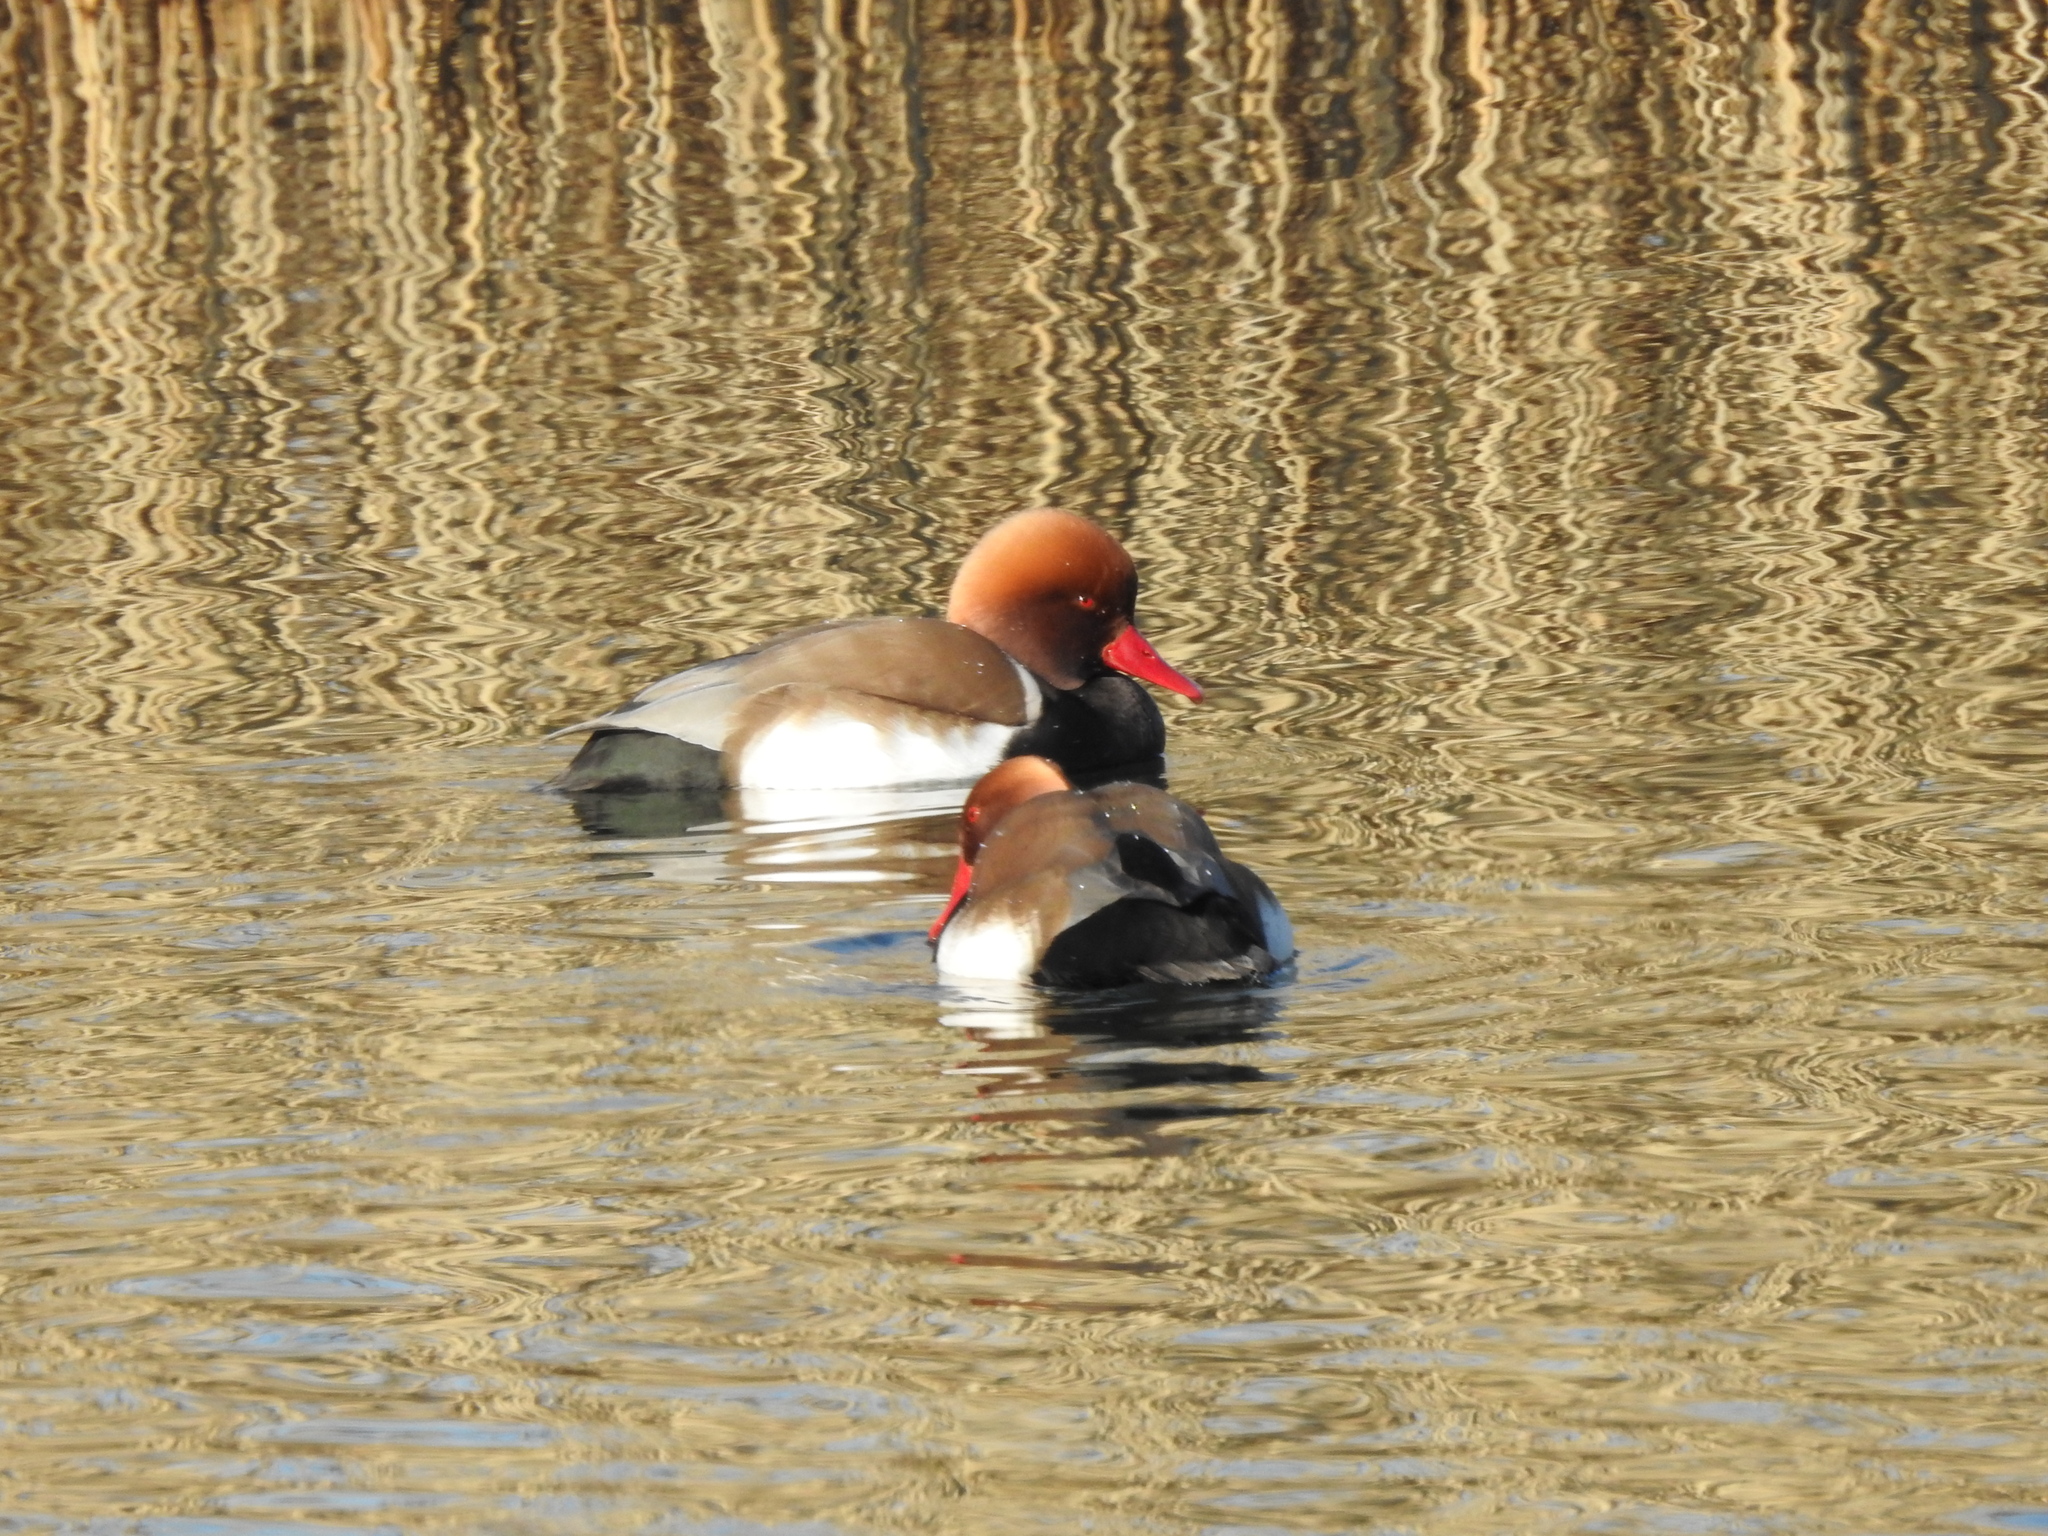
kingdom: Animalia
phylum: Chordata
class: Aves
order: Anseriformes
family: Anatidae
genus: Netta
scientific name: Netta rufina
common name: Red-crested pochard
